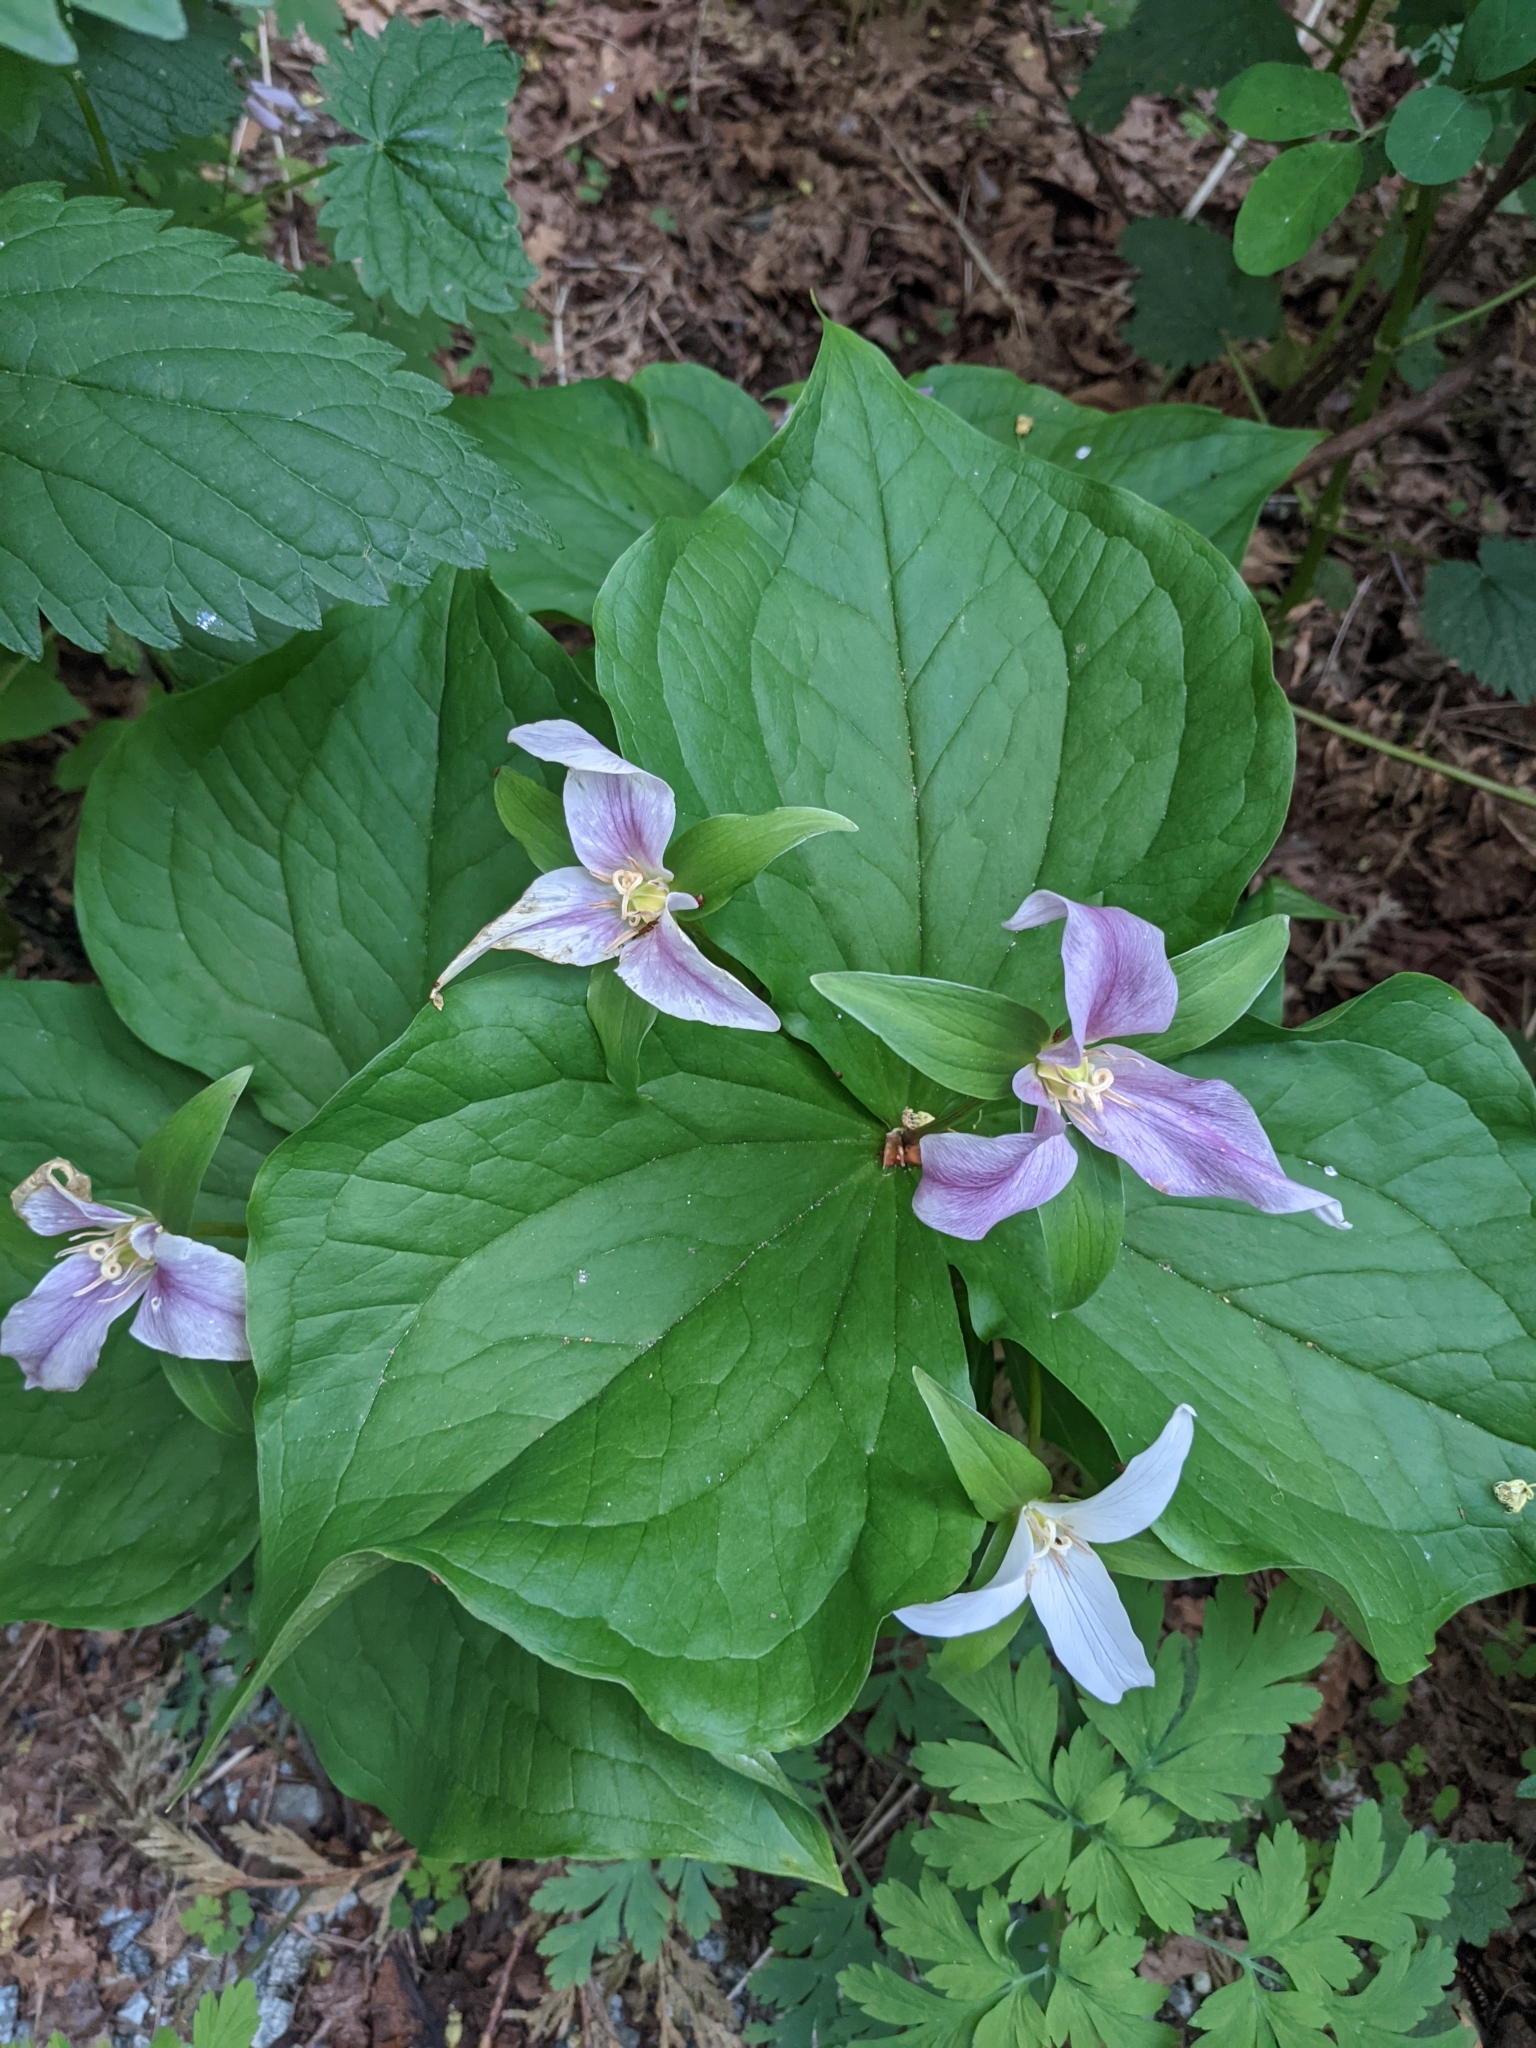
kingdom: Plantae
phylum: Tracheophyta
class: Liliopsida
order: Liliales
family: Melanthiaceae
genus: Trillium
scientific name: Trillium ovatum
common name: Pacific trillium
